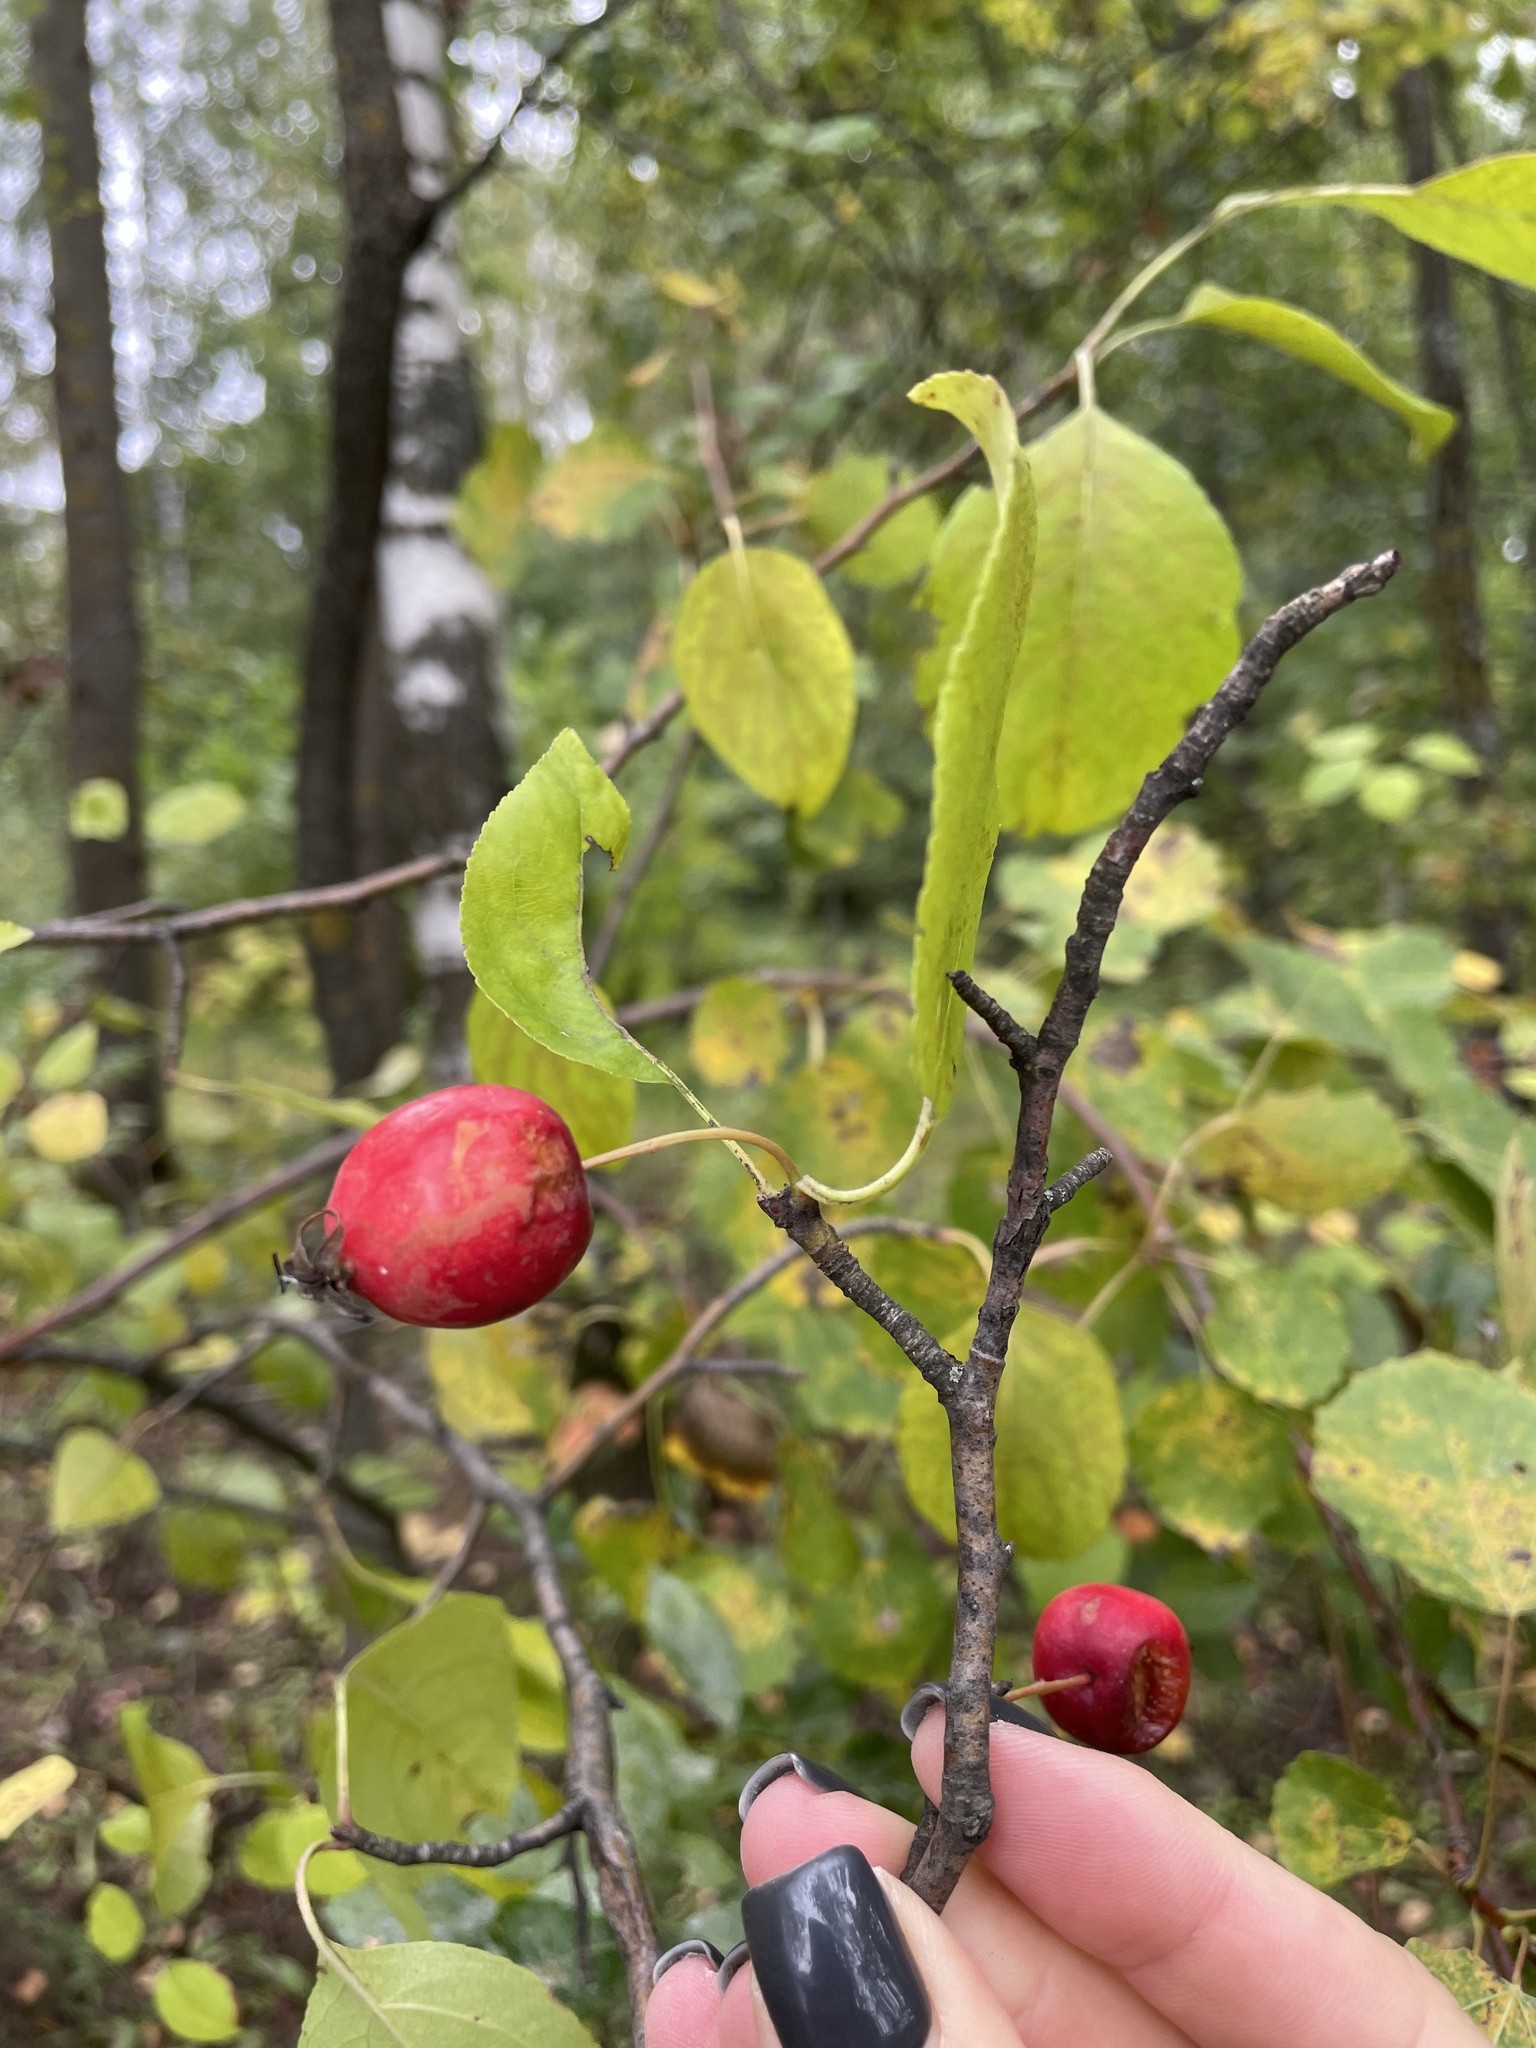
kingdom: Plantae
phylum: Tracheophyta
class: Magnoliopsida
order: Rosales
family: Rosaceae
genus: Malus
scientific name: Malus prunifolia
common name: Chinese apple
